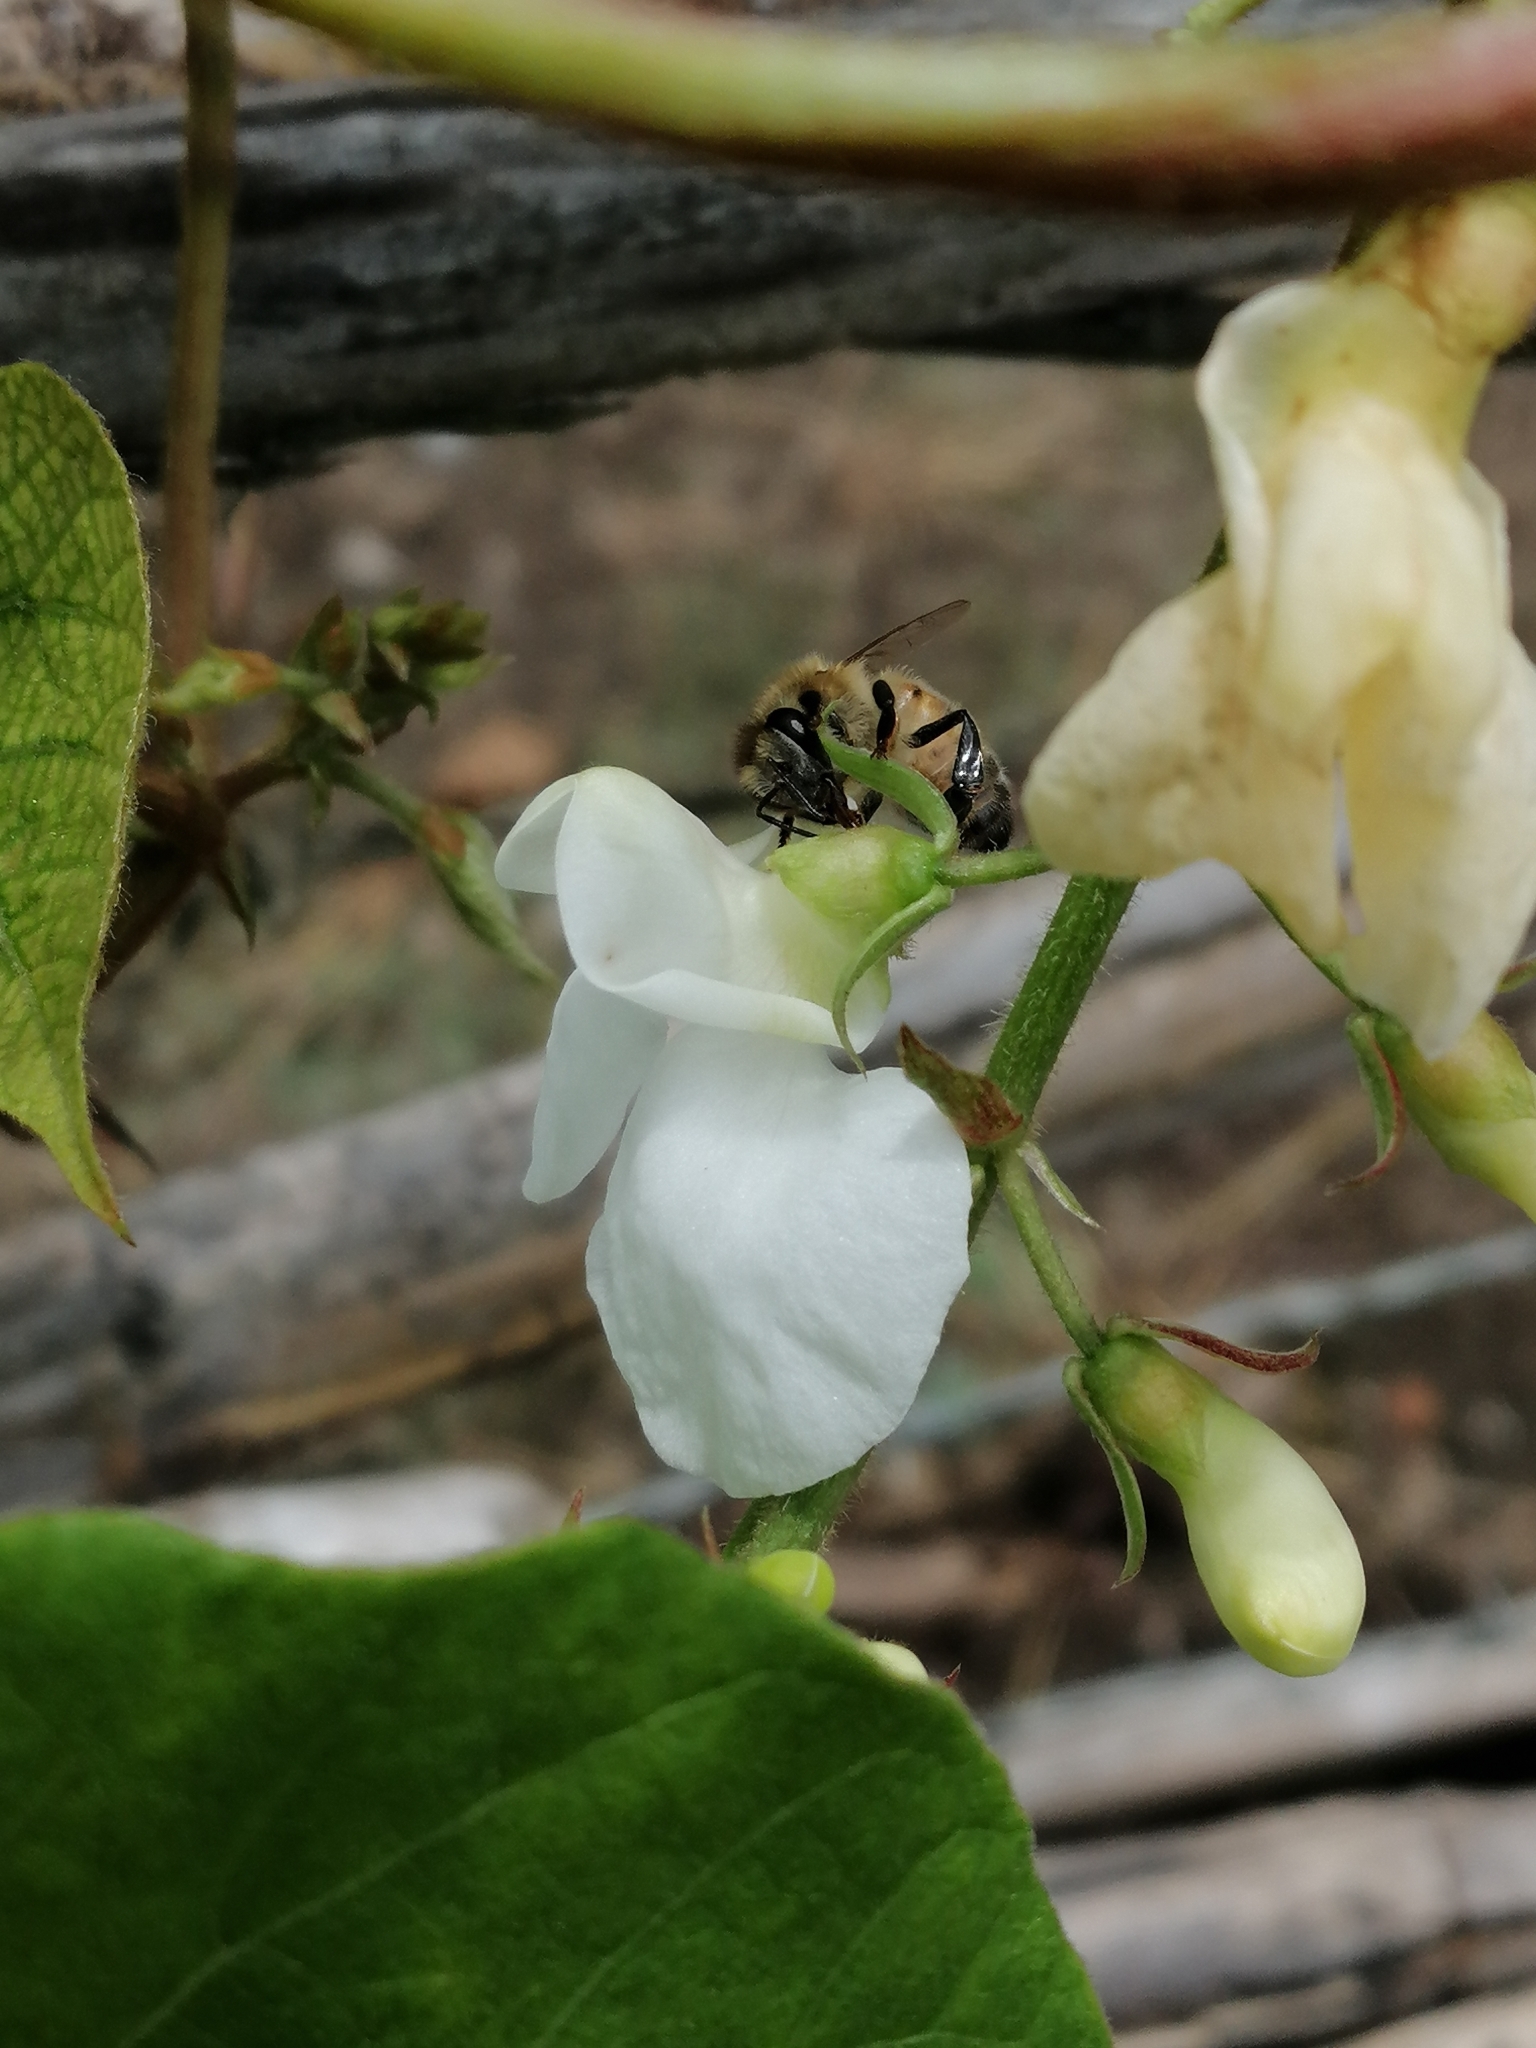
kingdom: Animalia
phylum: Arthropoda
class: Insecta
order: Hymenoptera
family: Apidae
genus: Apis
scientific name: Apis mellifera
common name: Honey bee
